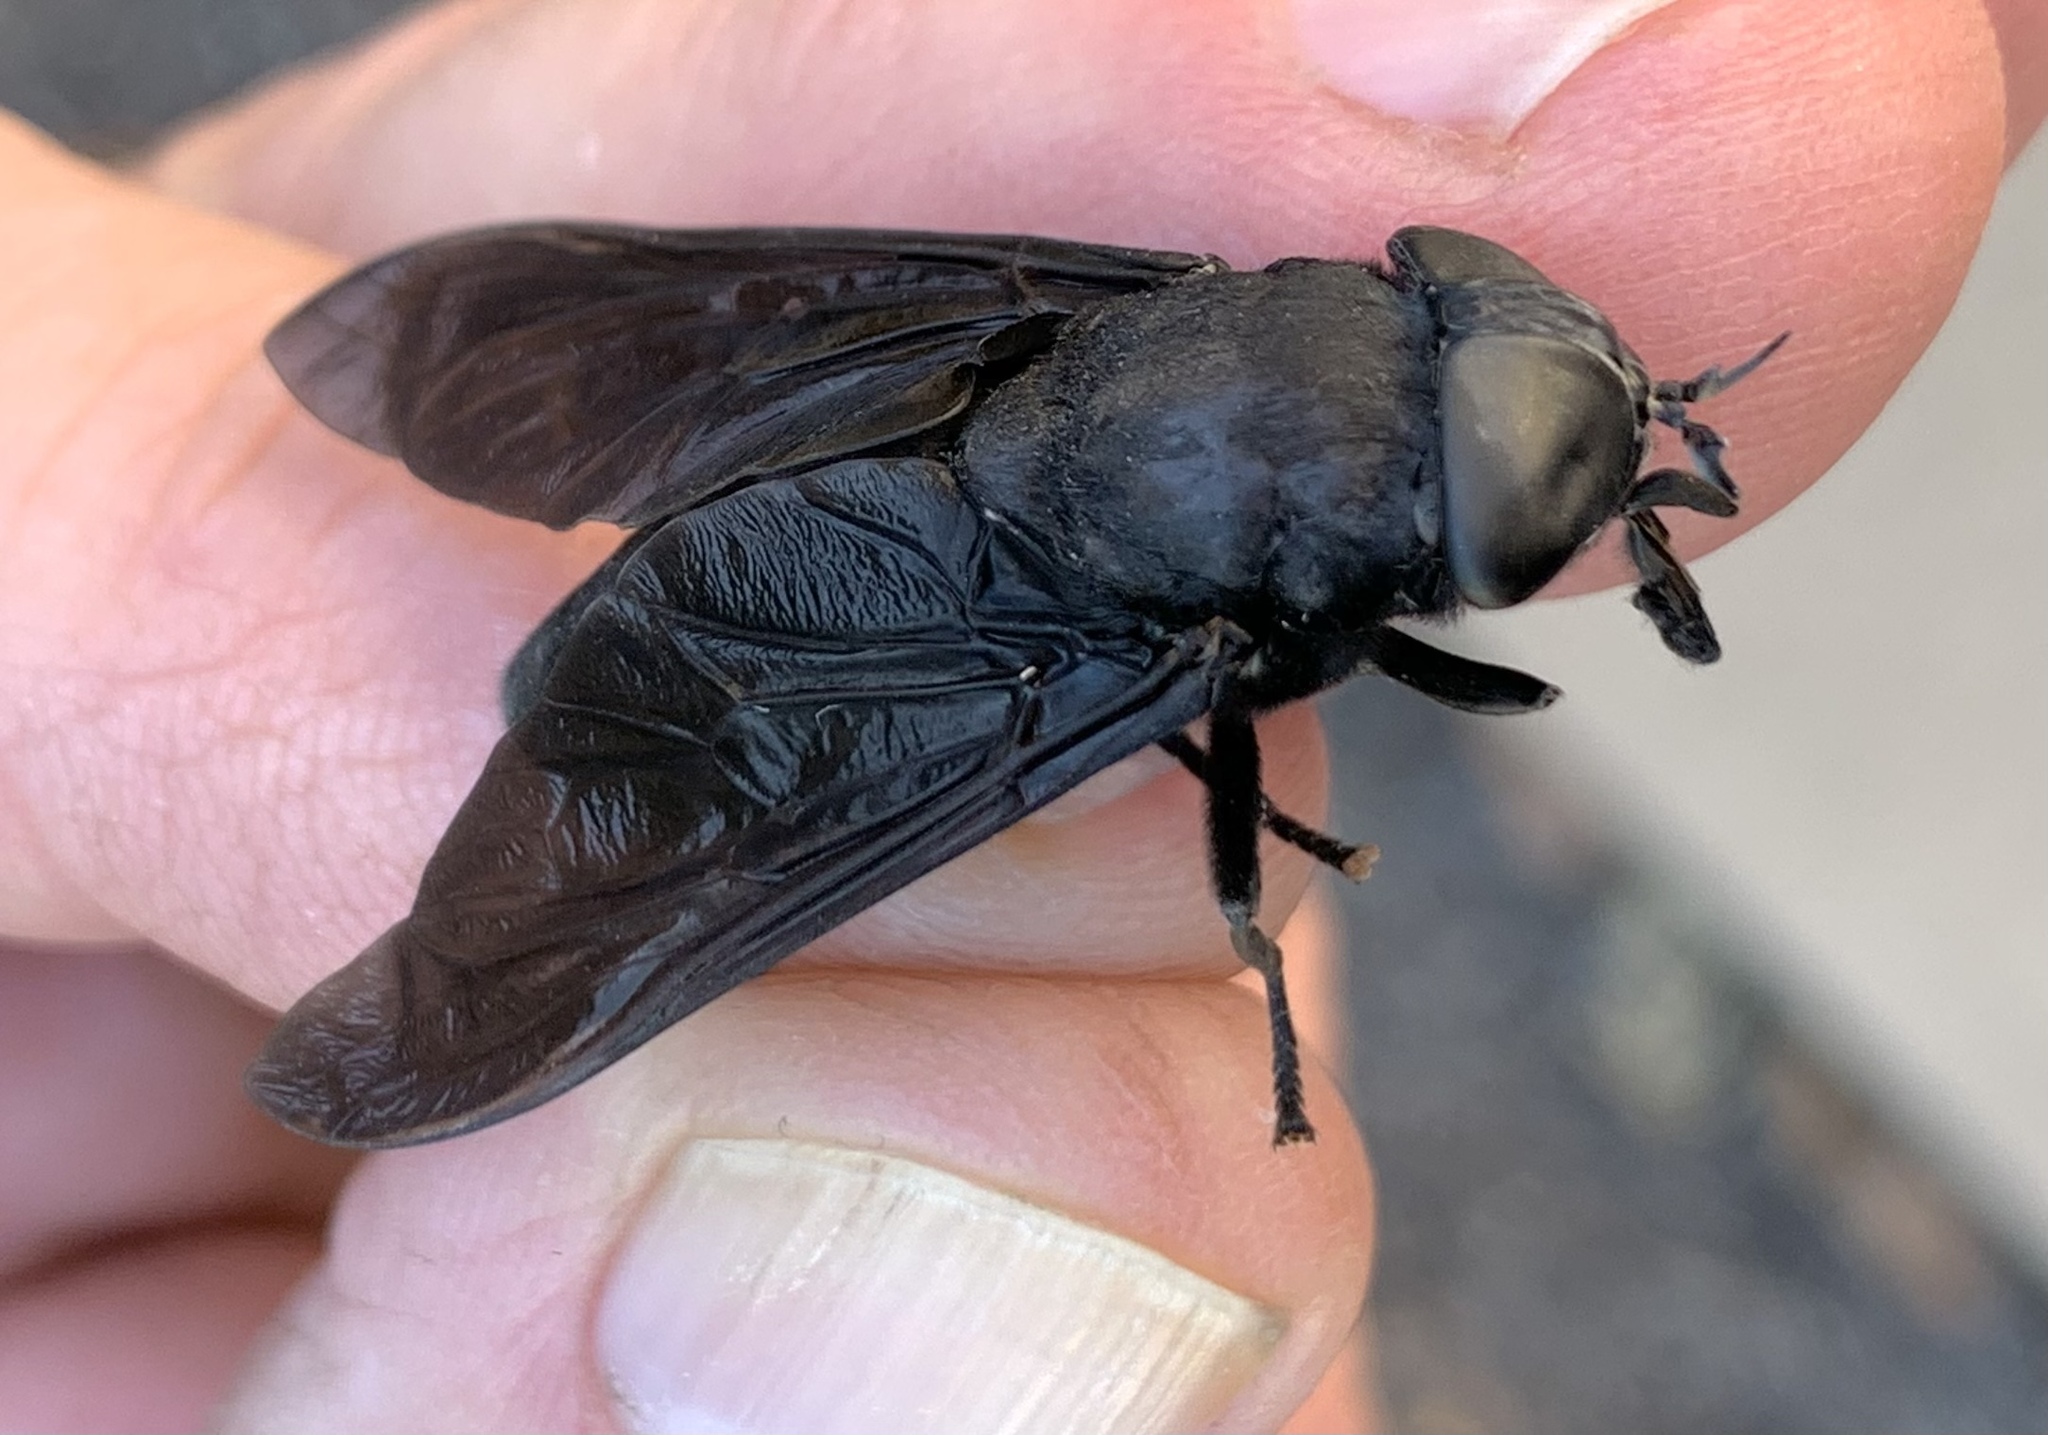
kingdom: Animalia
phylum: Arthropoda
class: Insecta
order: Diptera
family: Tabanidae
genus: Tabanus
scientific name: Tabanus atratus
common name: Black horse fly
